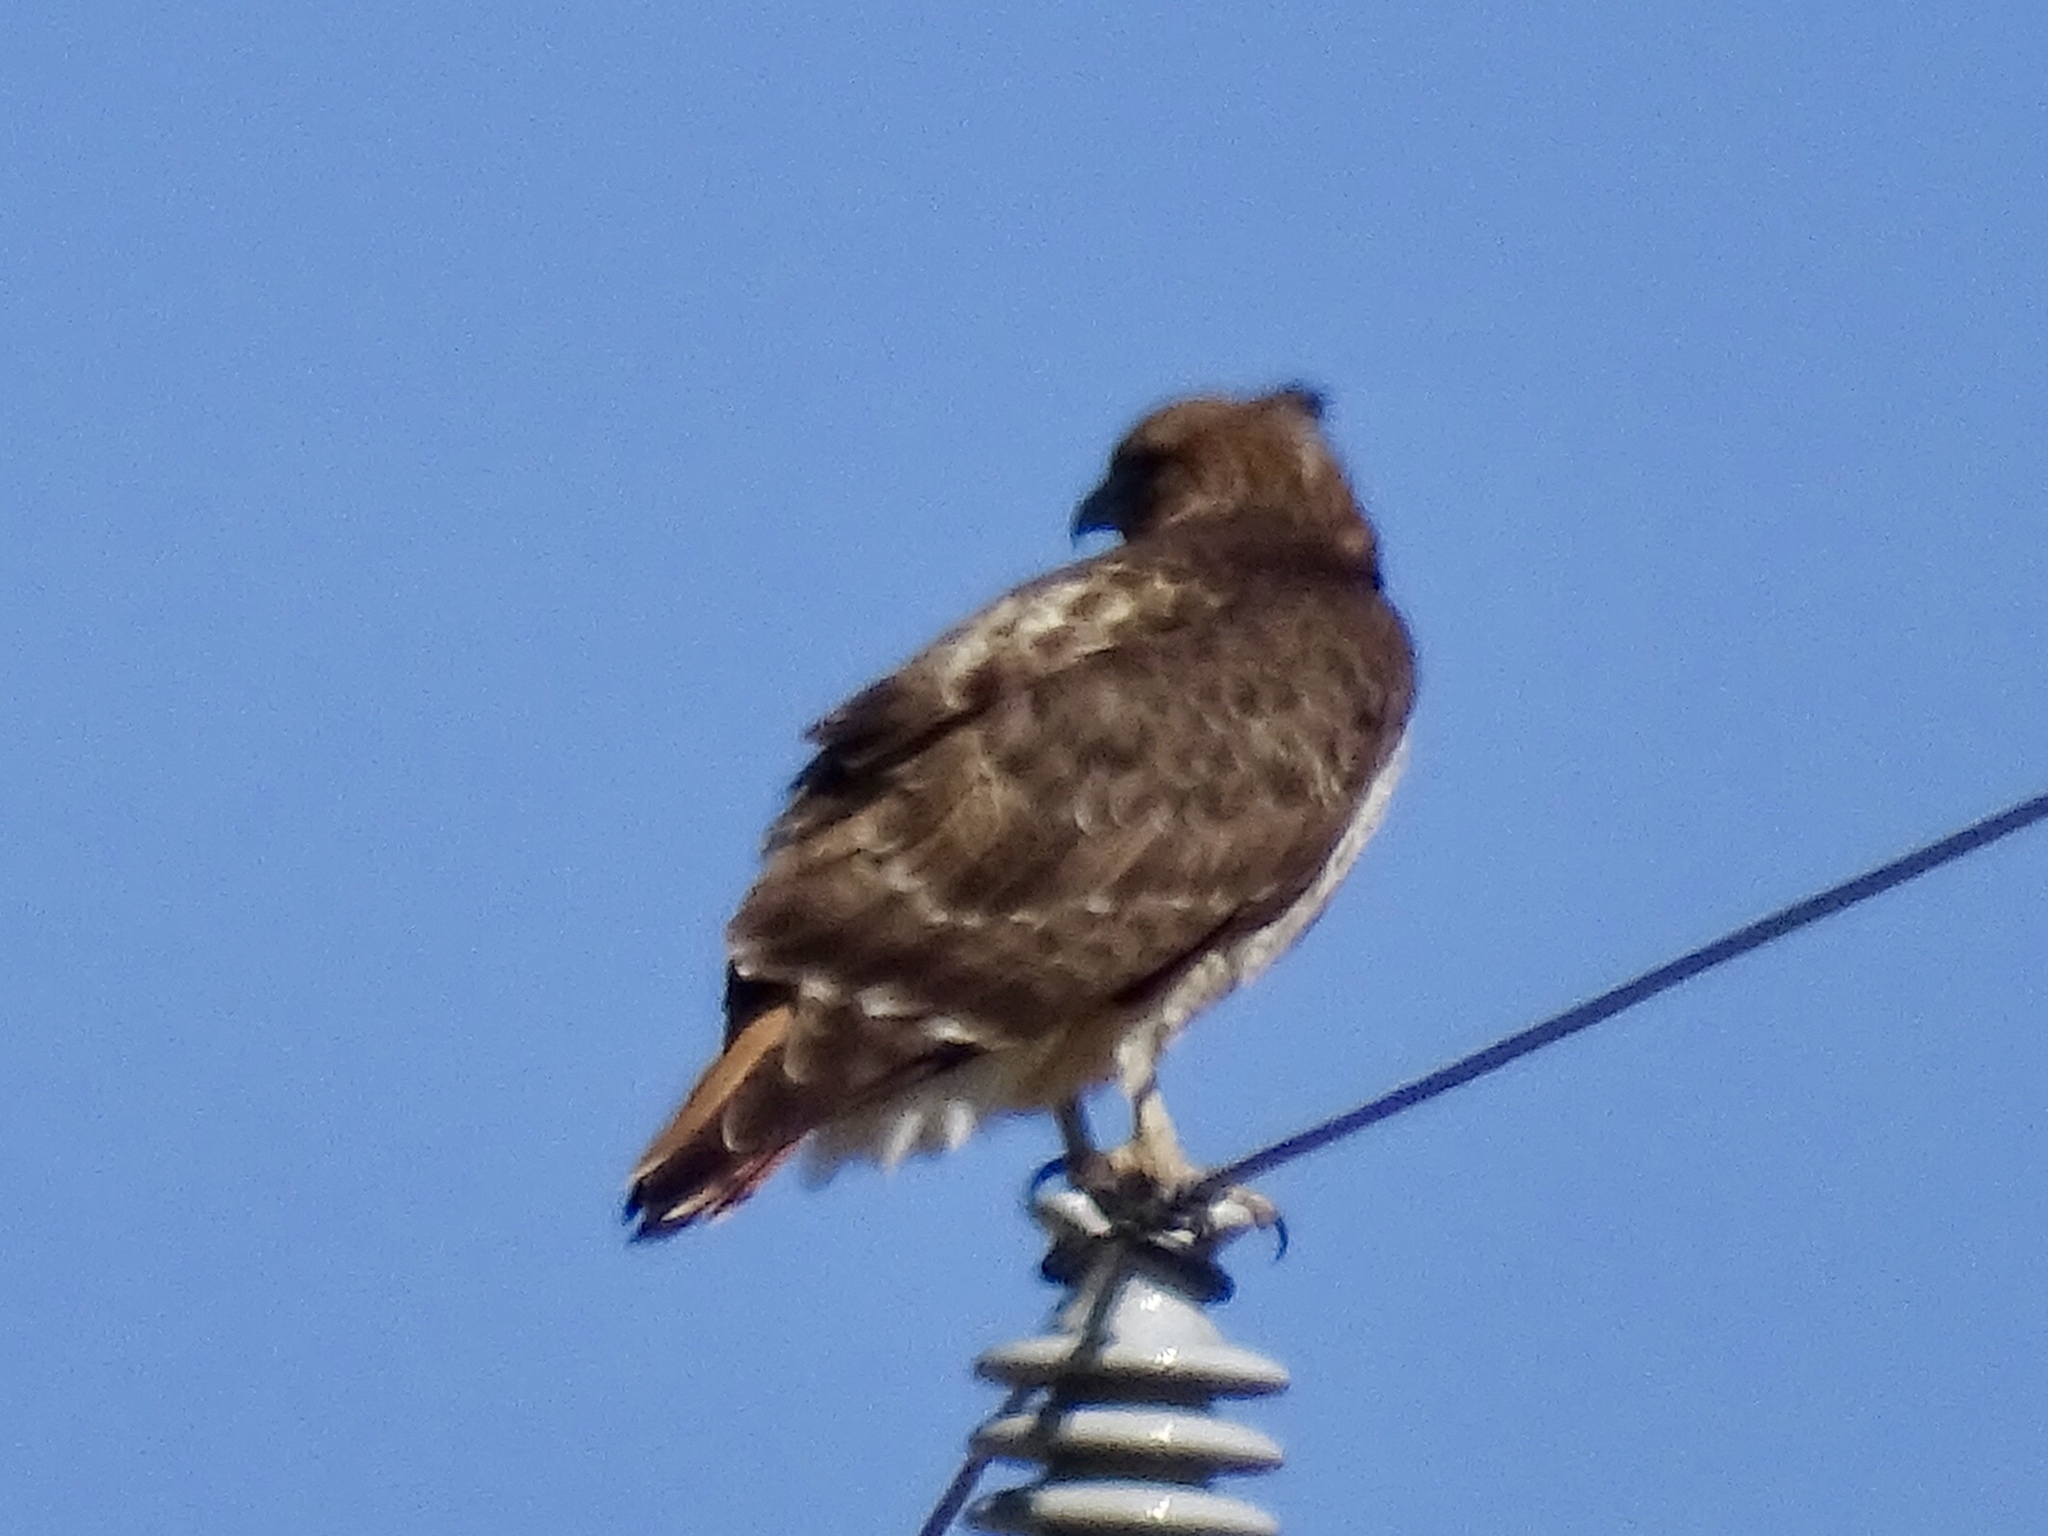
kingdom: Animalia
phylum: Chordata
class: Aves
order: Accipitriformes
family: Accipitridae
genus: Buteo
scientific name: Buteo jamaicensis
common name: Red-tailed hawk
